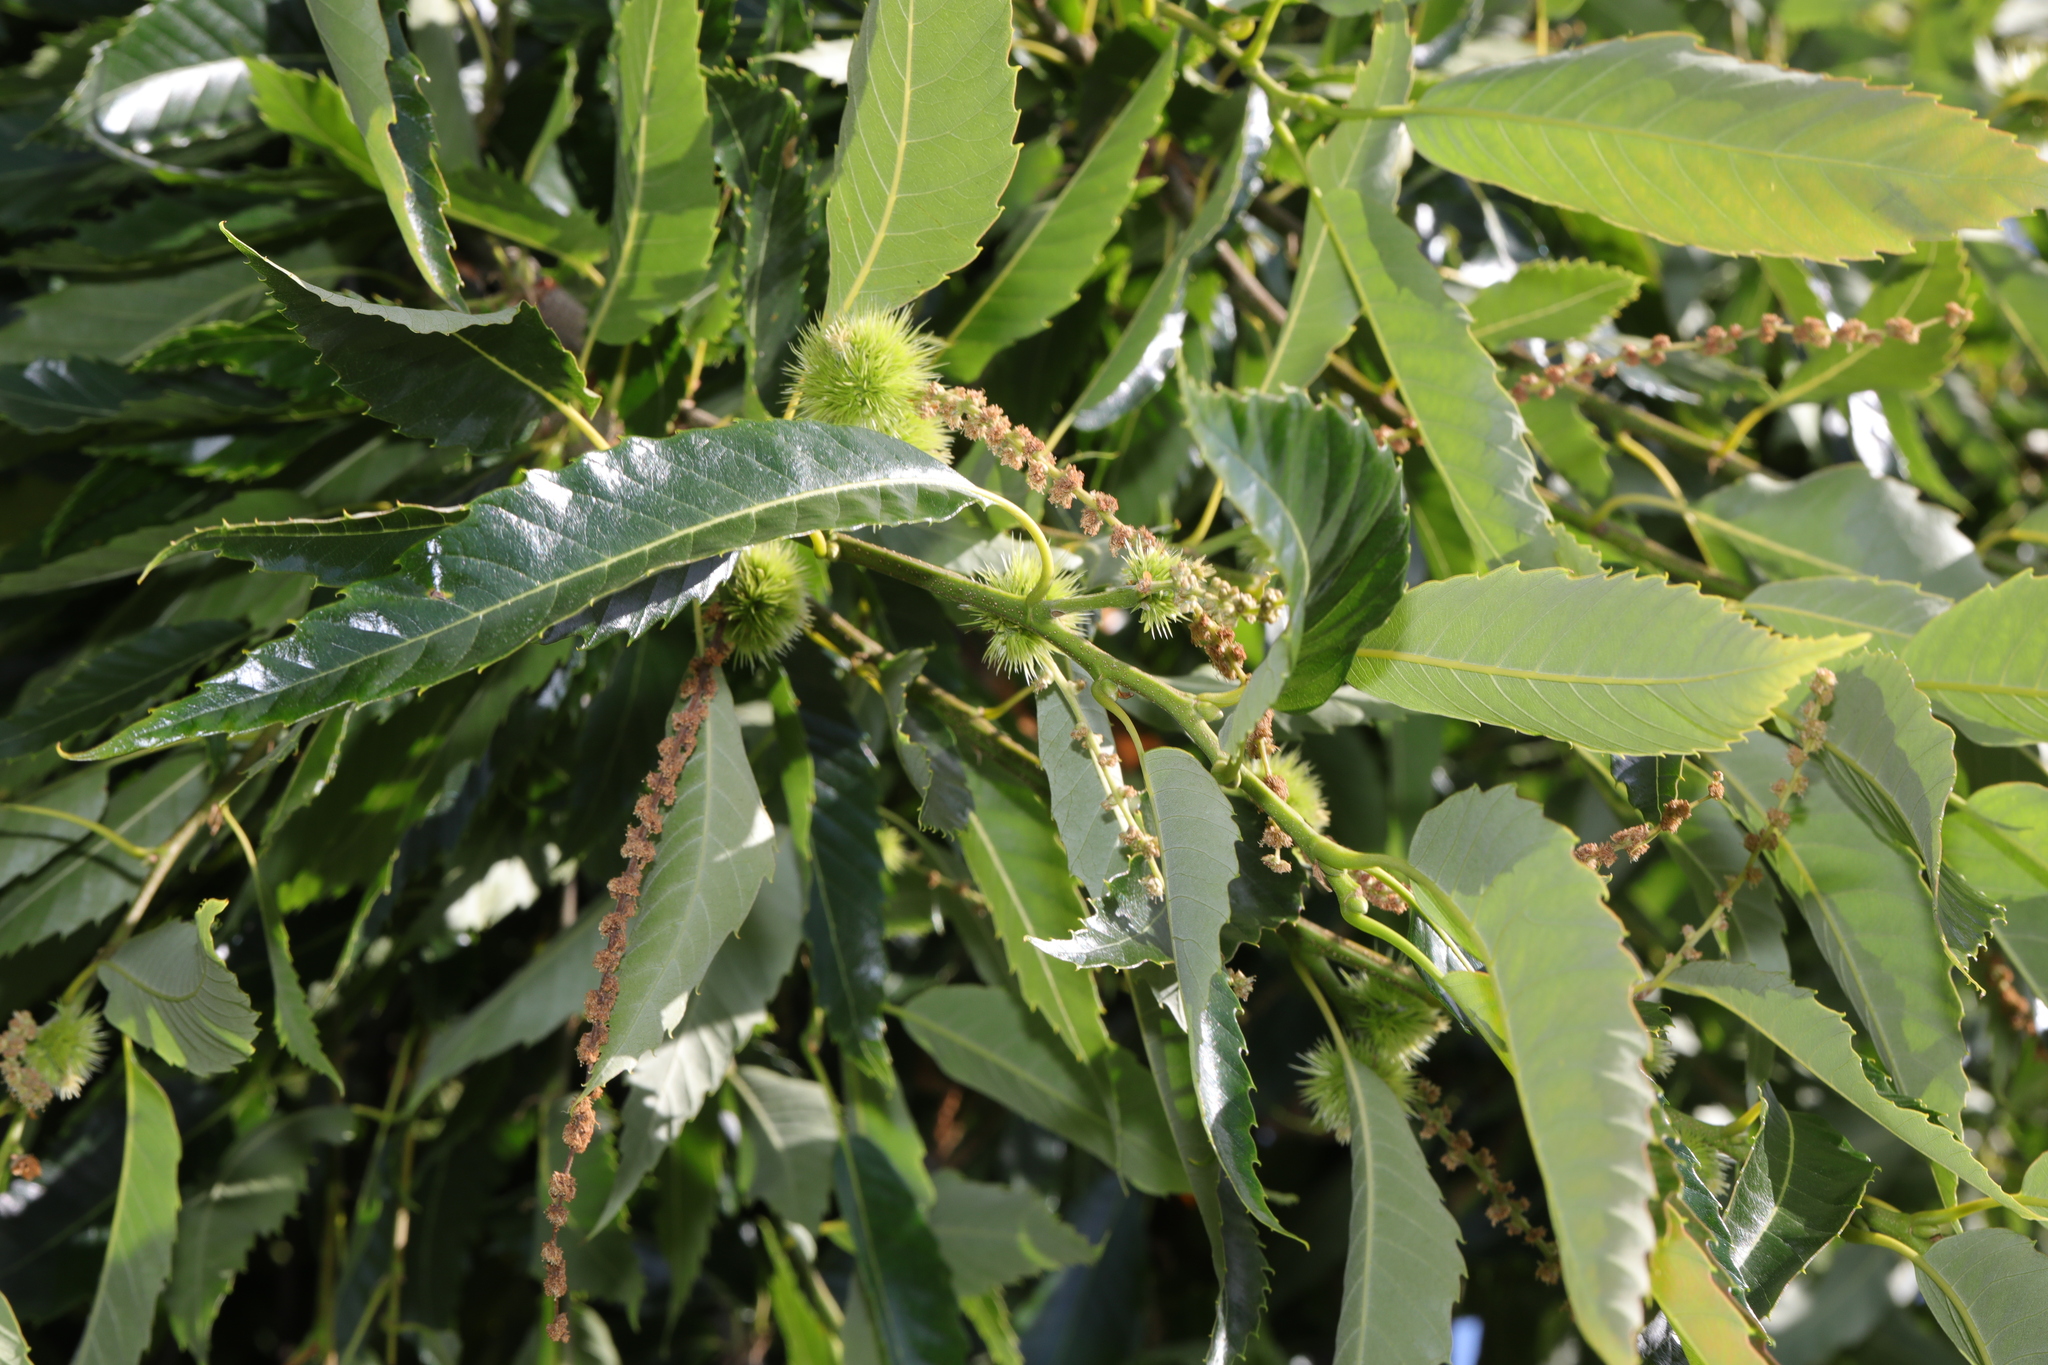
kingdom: Plantae
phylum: Tracheophyta
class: Magnoliopsida
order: Fagales
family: Fagaceae
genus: Castanea
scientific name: Castanea sativa
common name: Sweet chestnut
